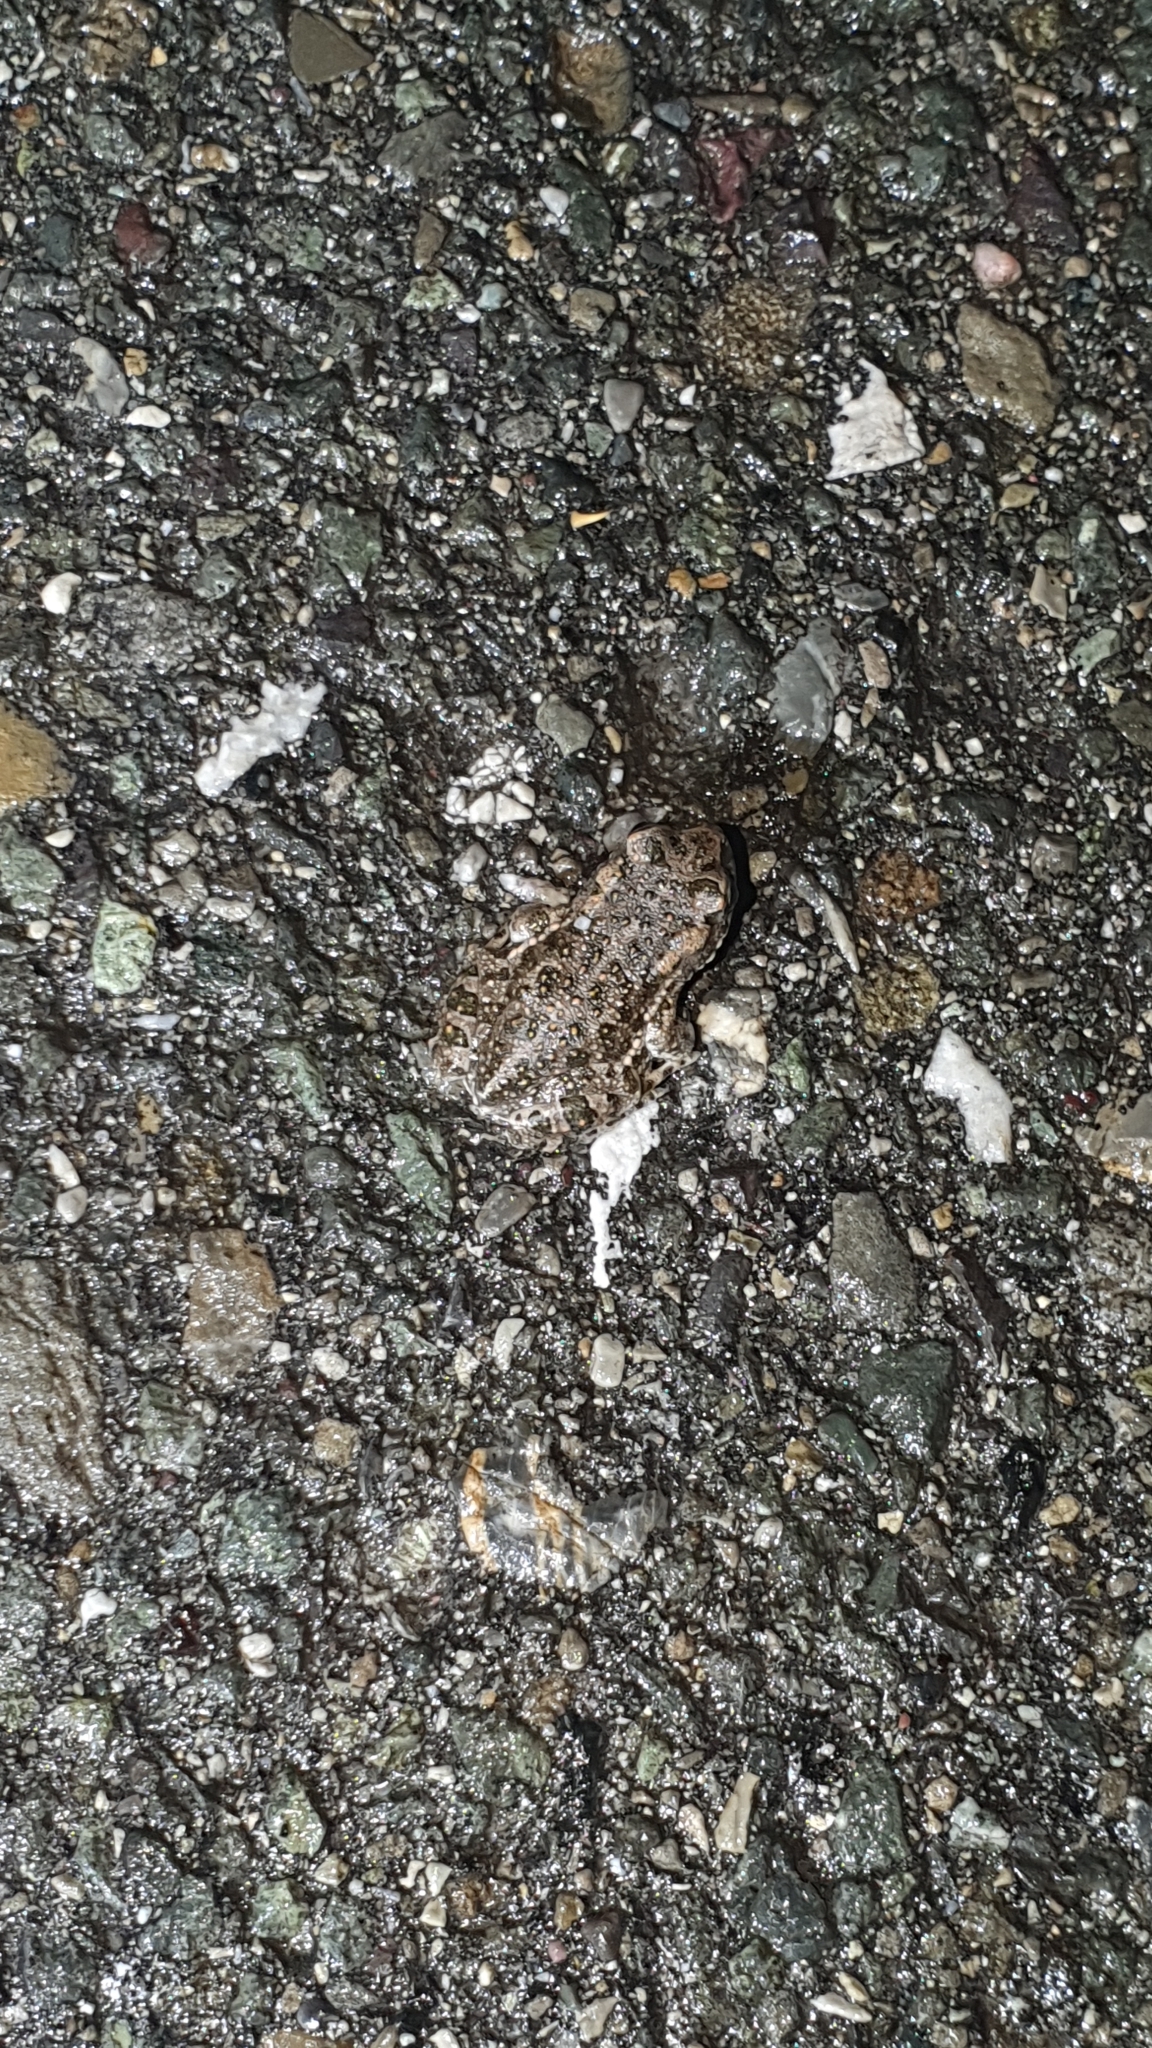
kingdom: Animalia
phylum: Chordata
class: Amphibia
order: Anura
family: Bufonidae
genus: Bufotes
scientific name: Bufotes viridis
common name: European green toad
